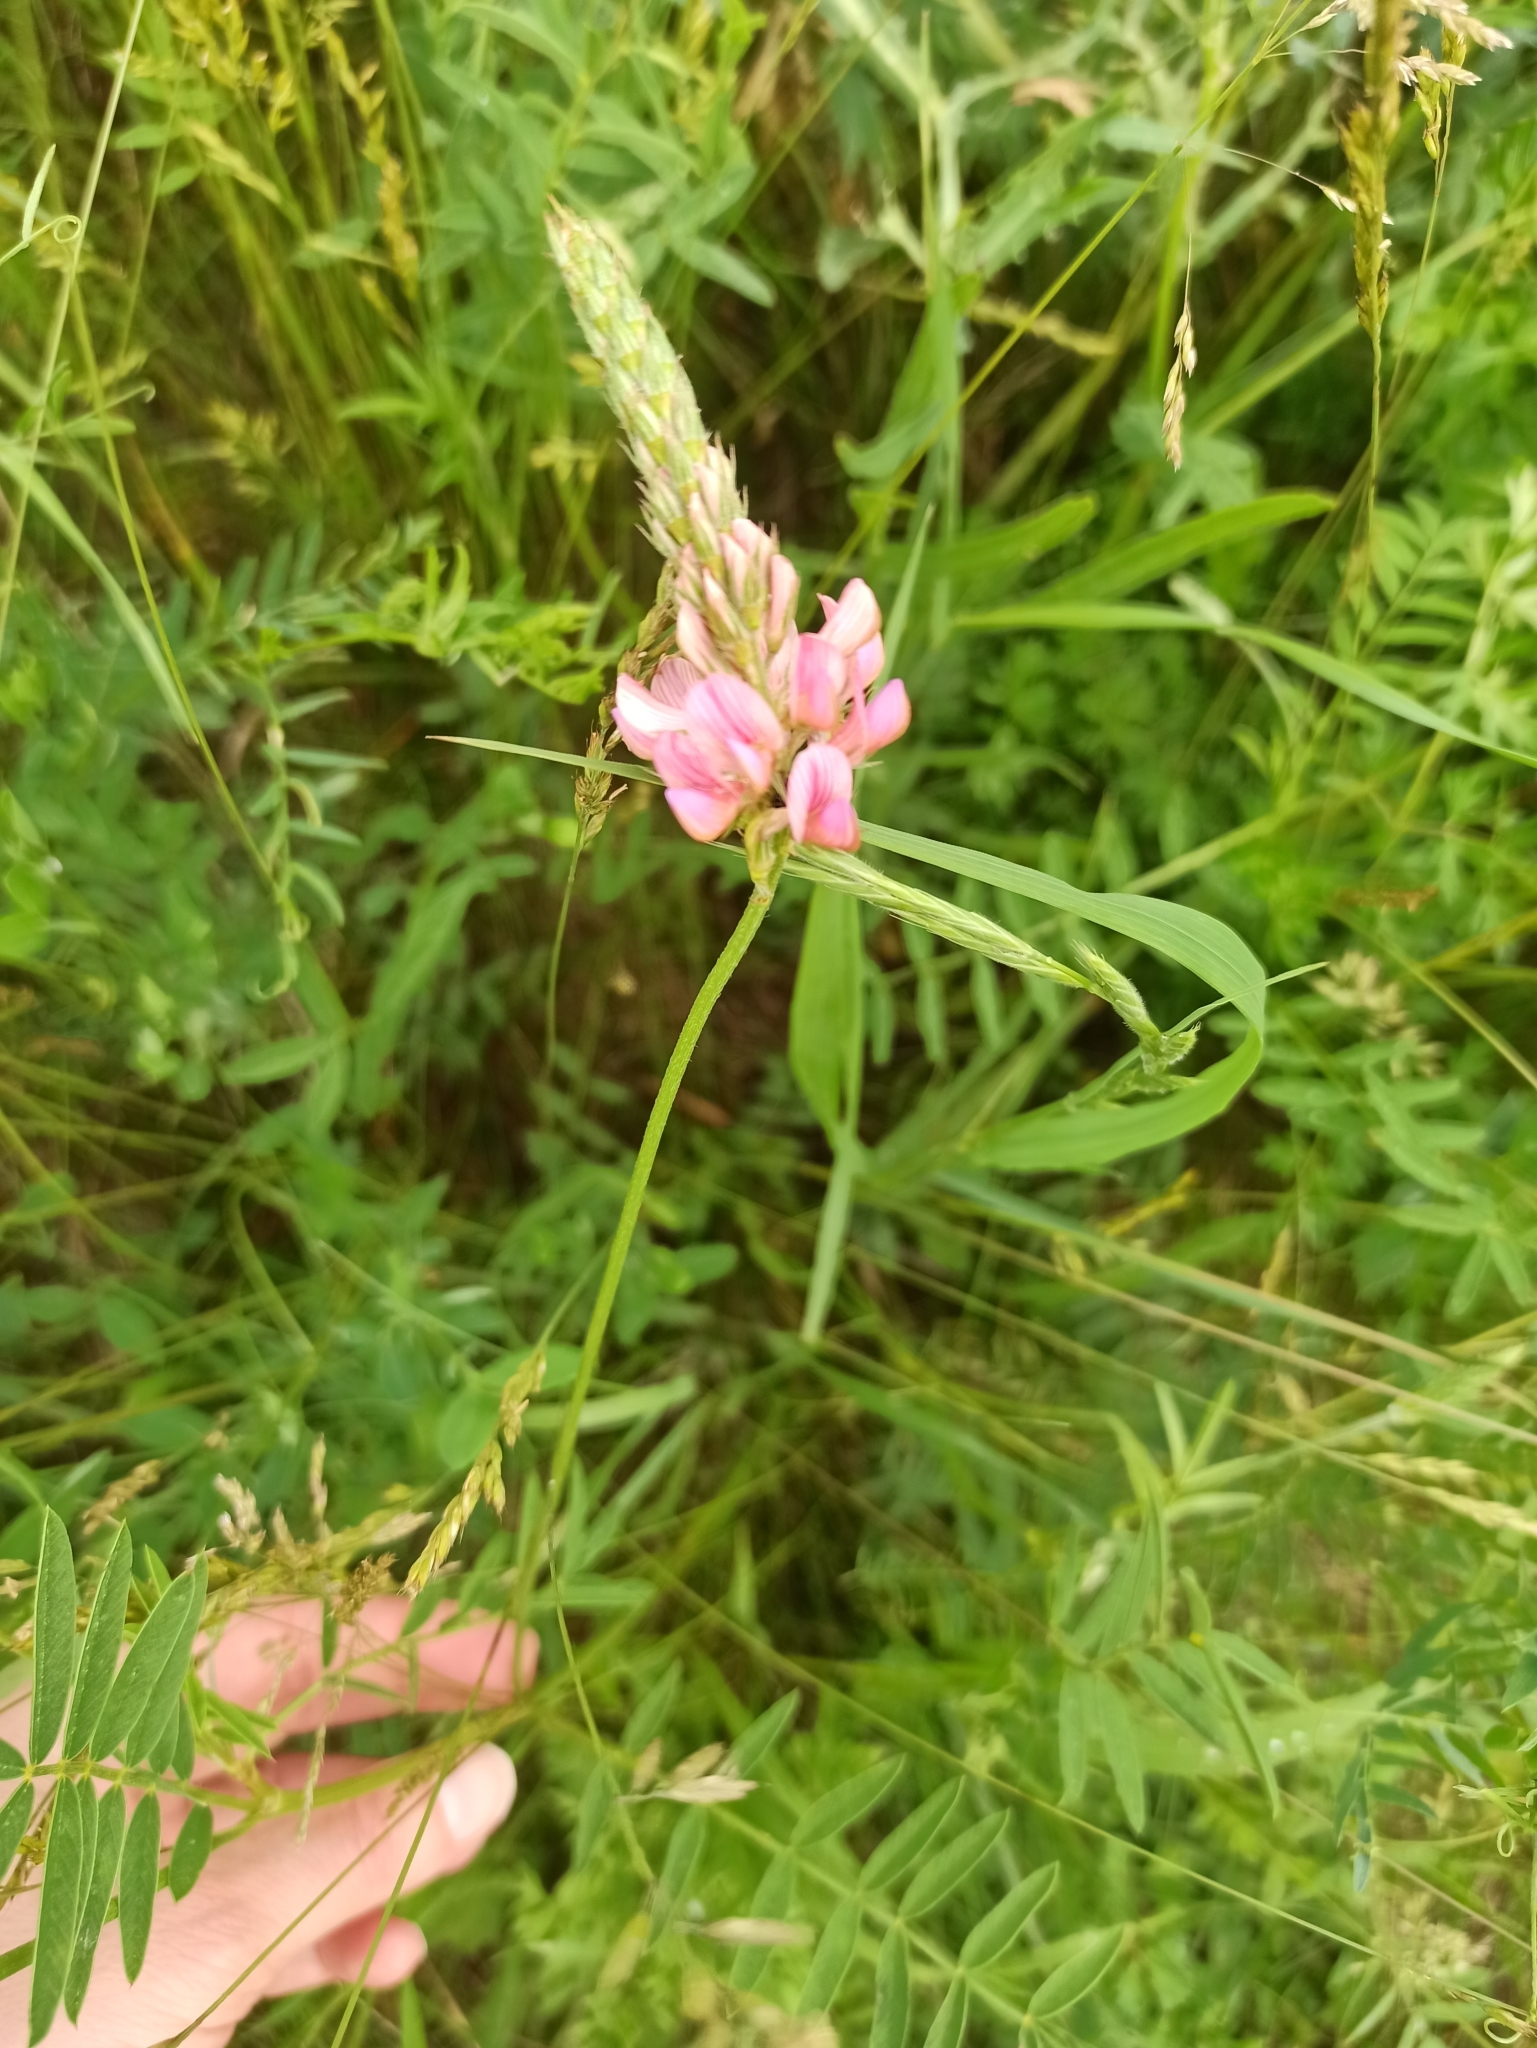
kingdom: Plantae
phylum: Tracheophyta
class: Magnoliopsida
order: Fabales
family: Fabaceae
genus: Onobrychis
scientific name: Onobrychis viciifolia
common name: Sainfoin
